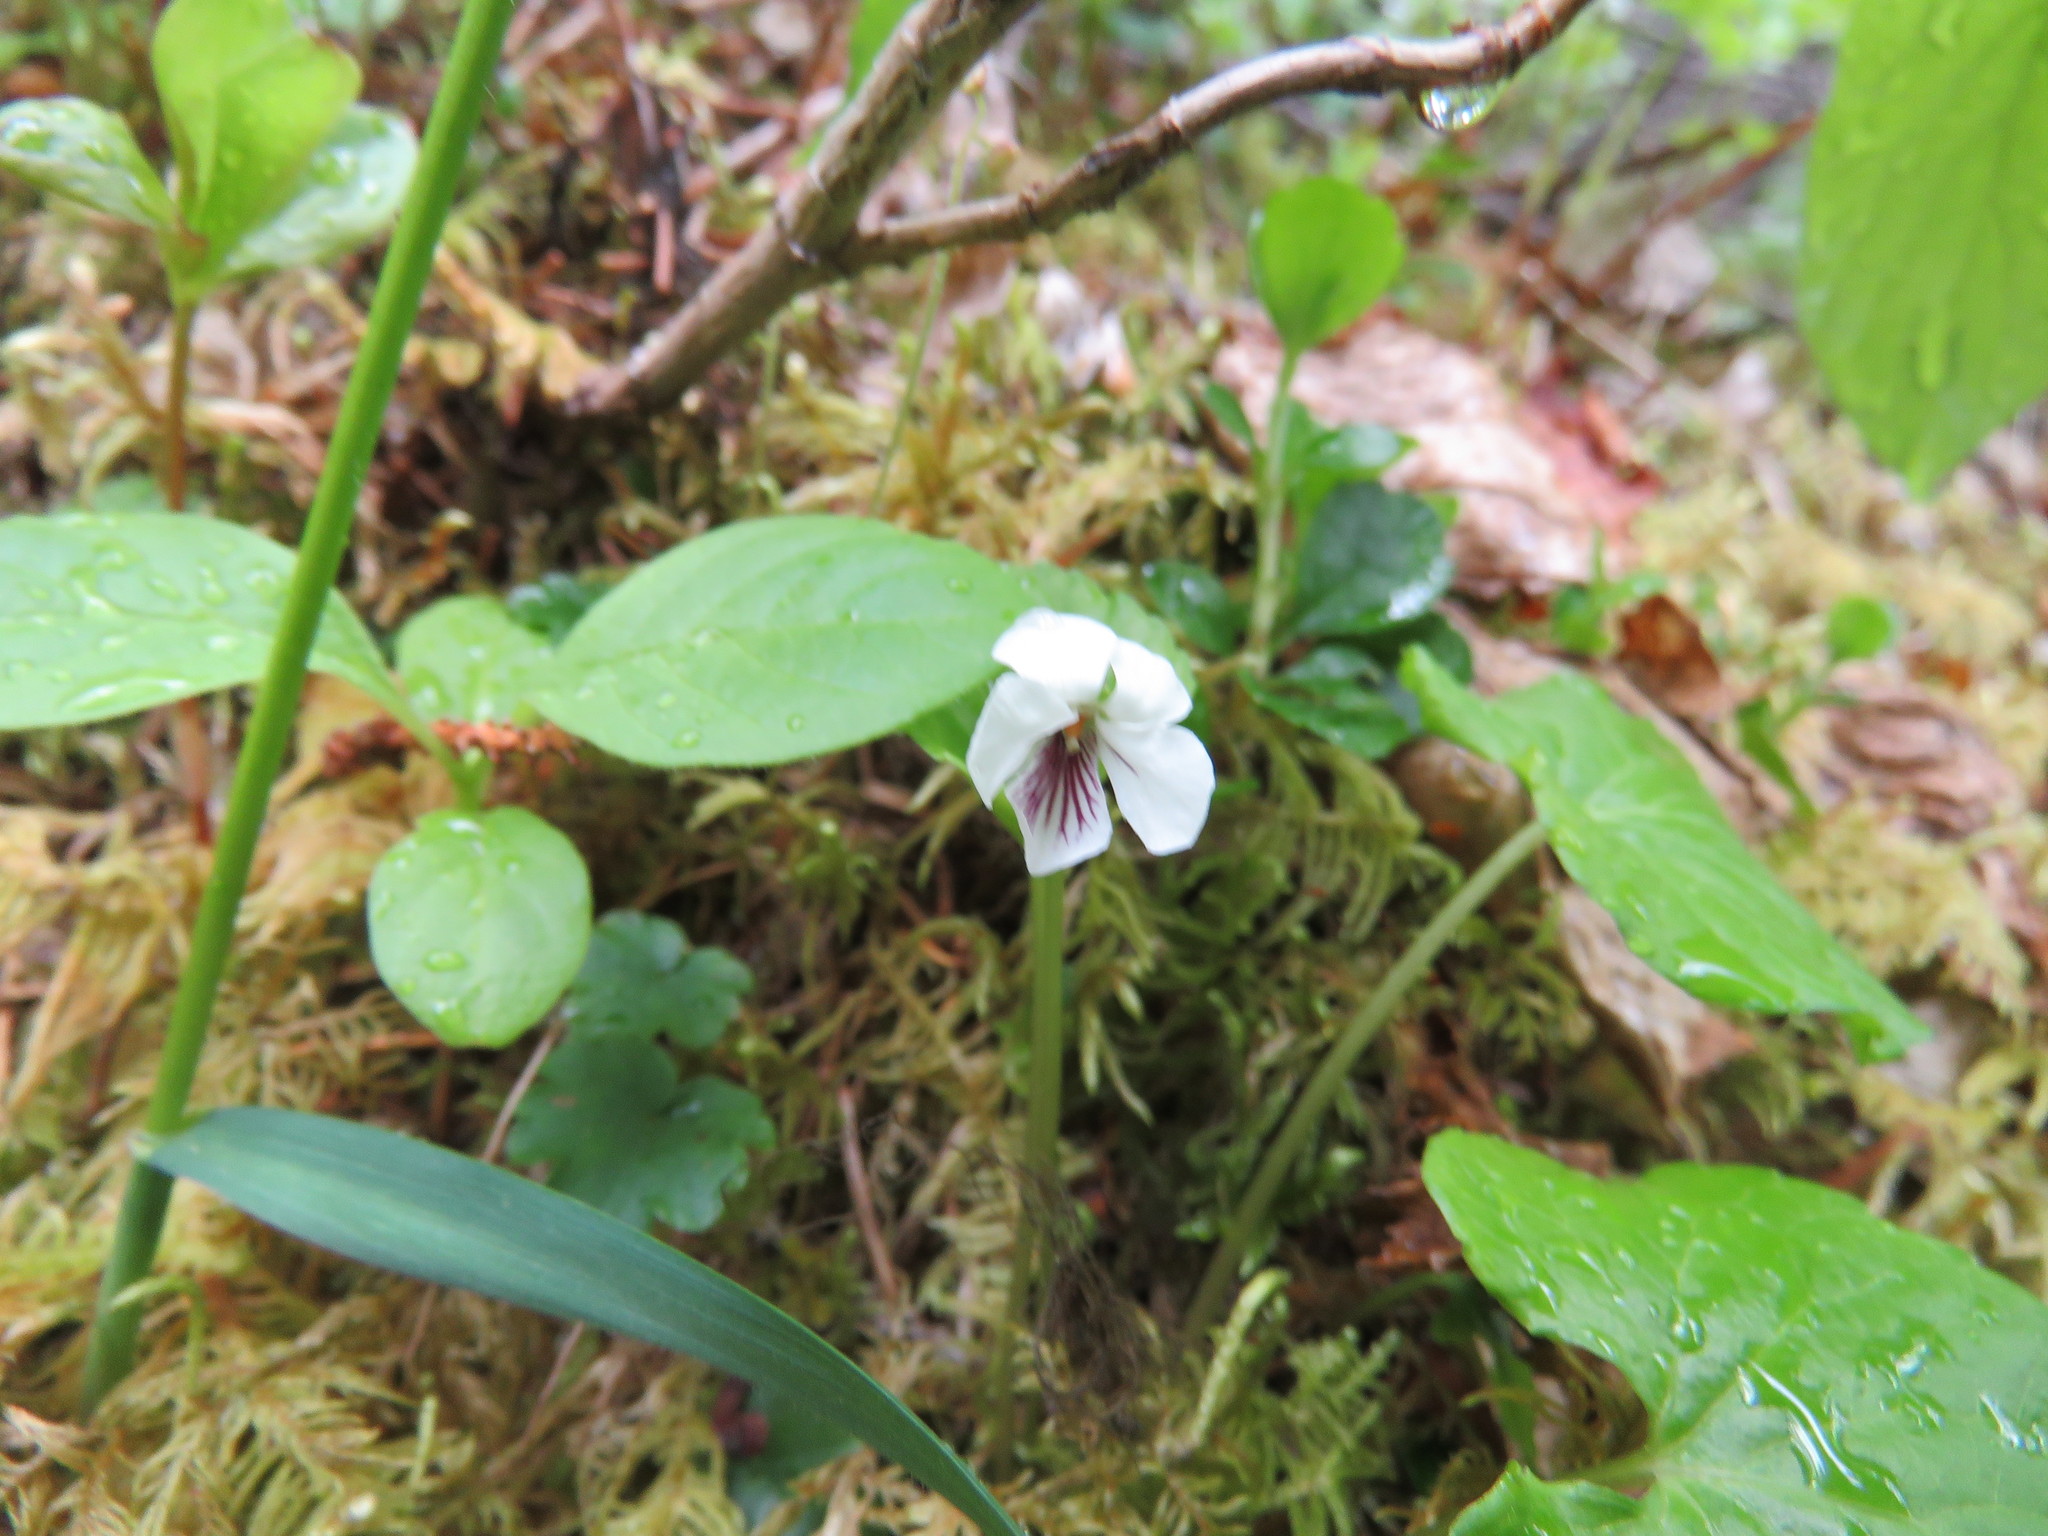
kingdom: Plantae
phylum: Tracheophyta
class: Magnoliopsida
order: Malpighiales
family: Violaceae
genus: Viola
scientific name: Viola renifolia
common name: Kidney-leaf violet
